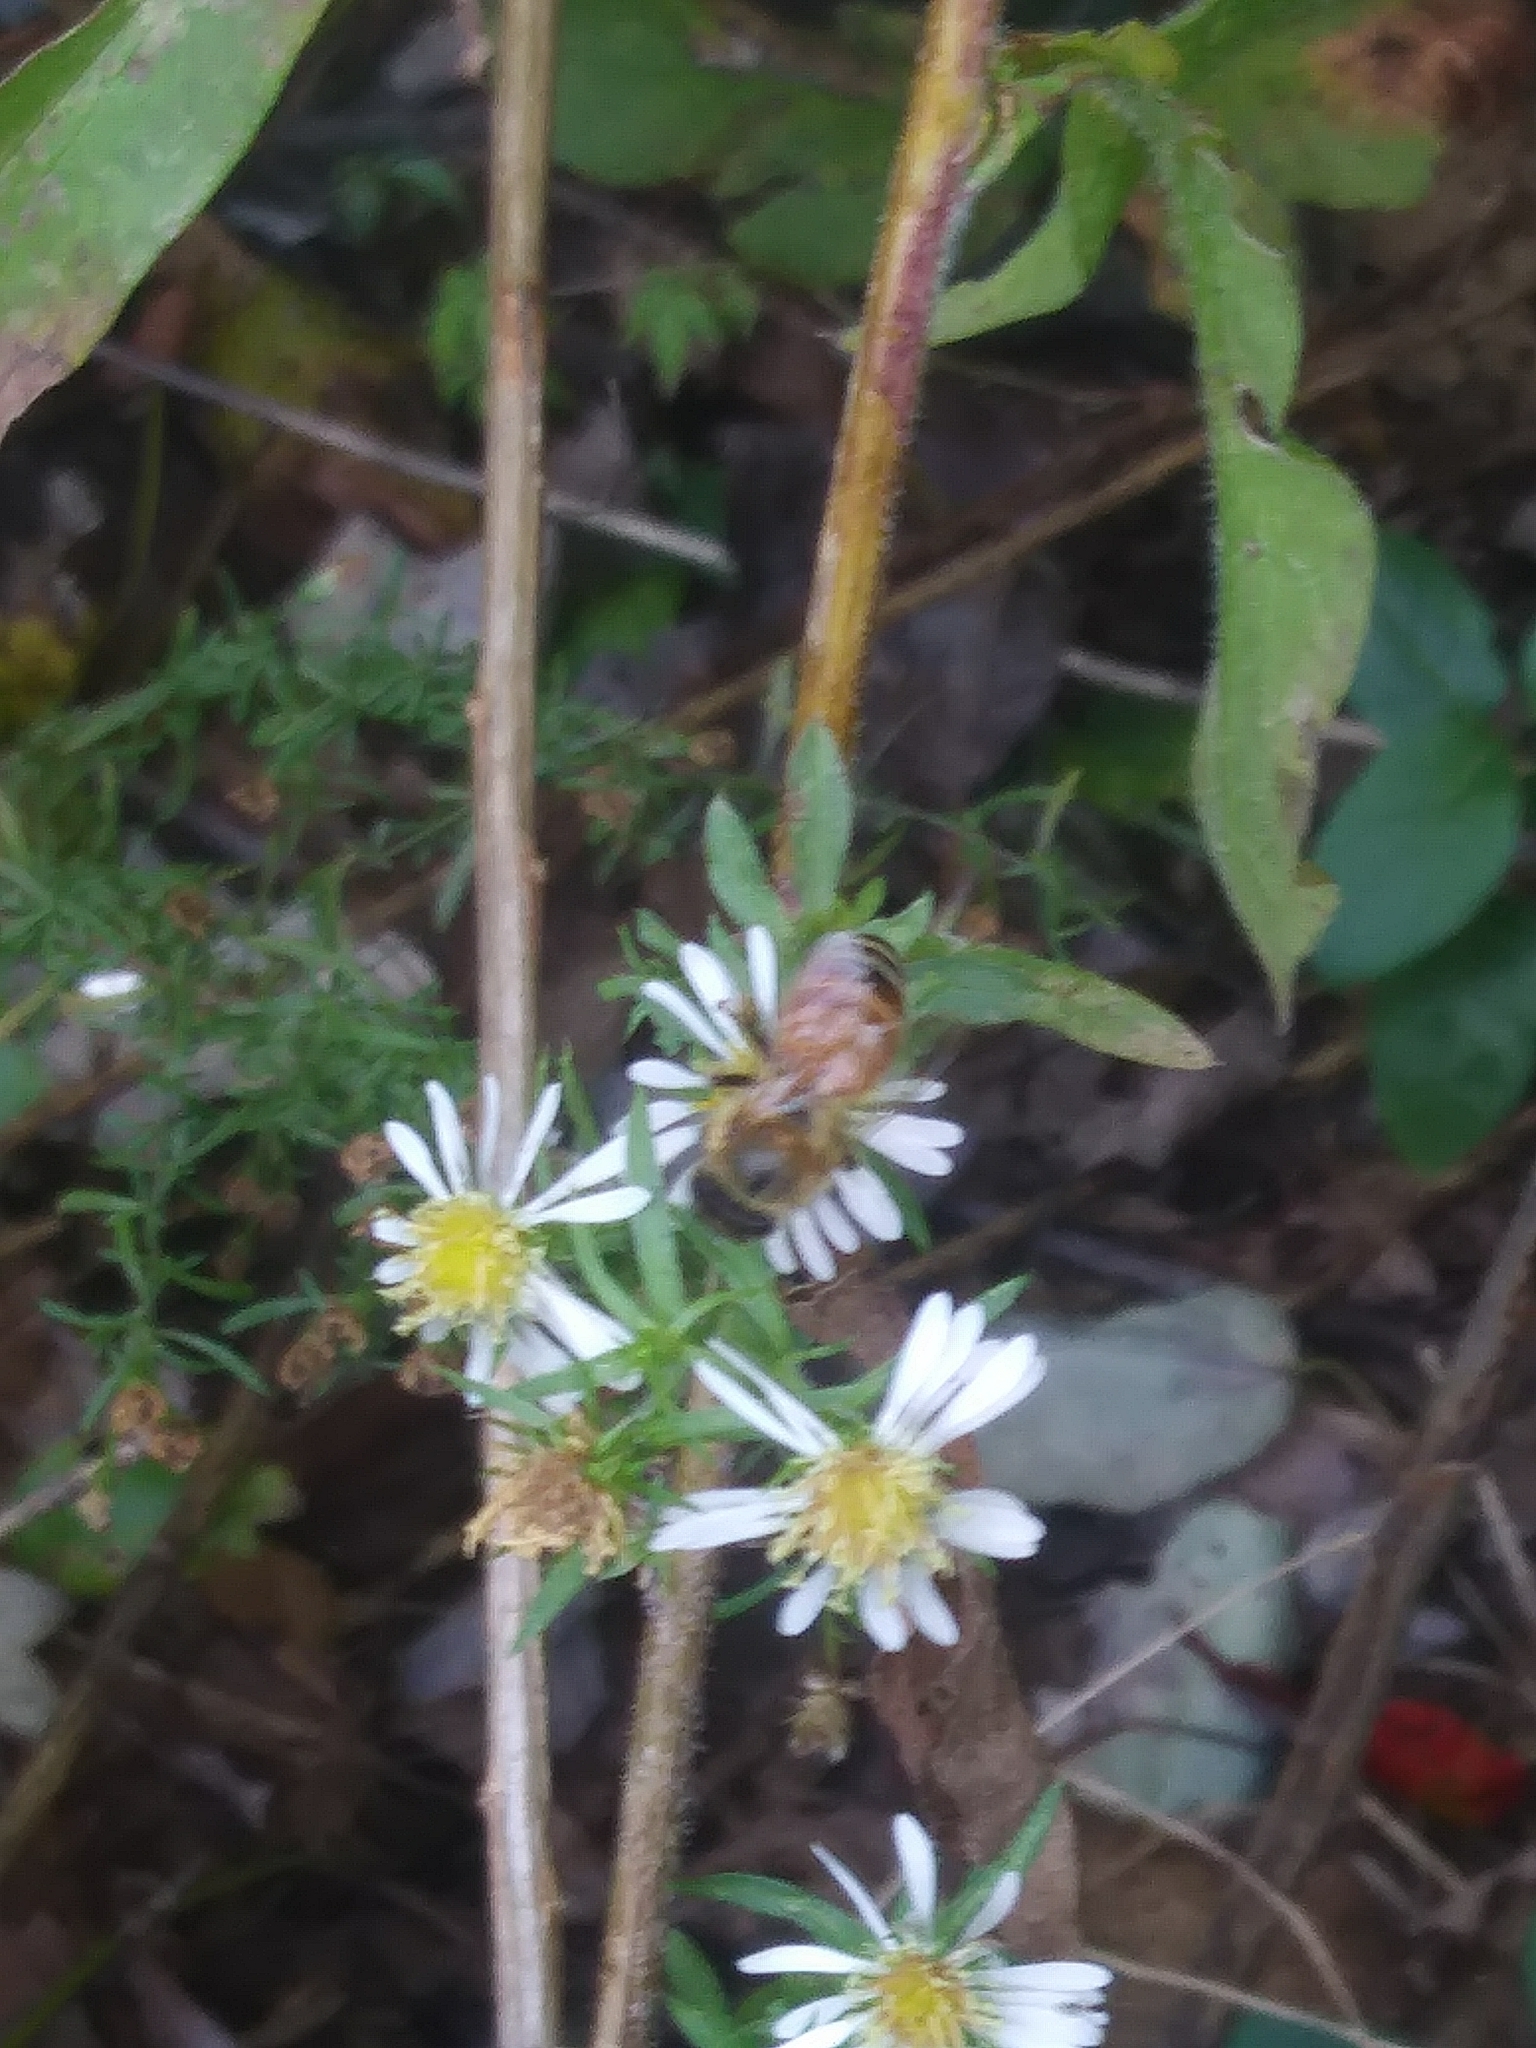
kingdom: Animalia
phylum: Arthropoda
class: Insecta
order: Hymenoptera
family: Apidae
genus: Apis
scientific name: Apis mellifera
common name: Honey bee
